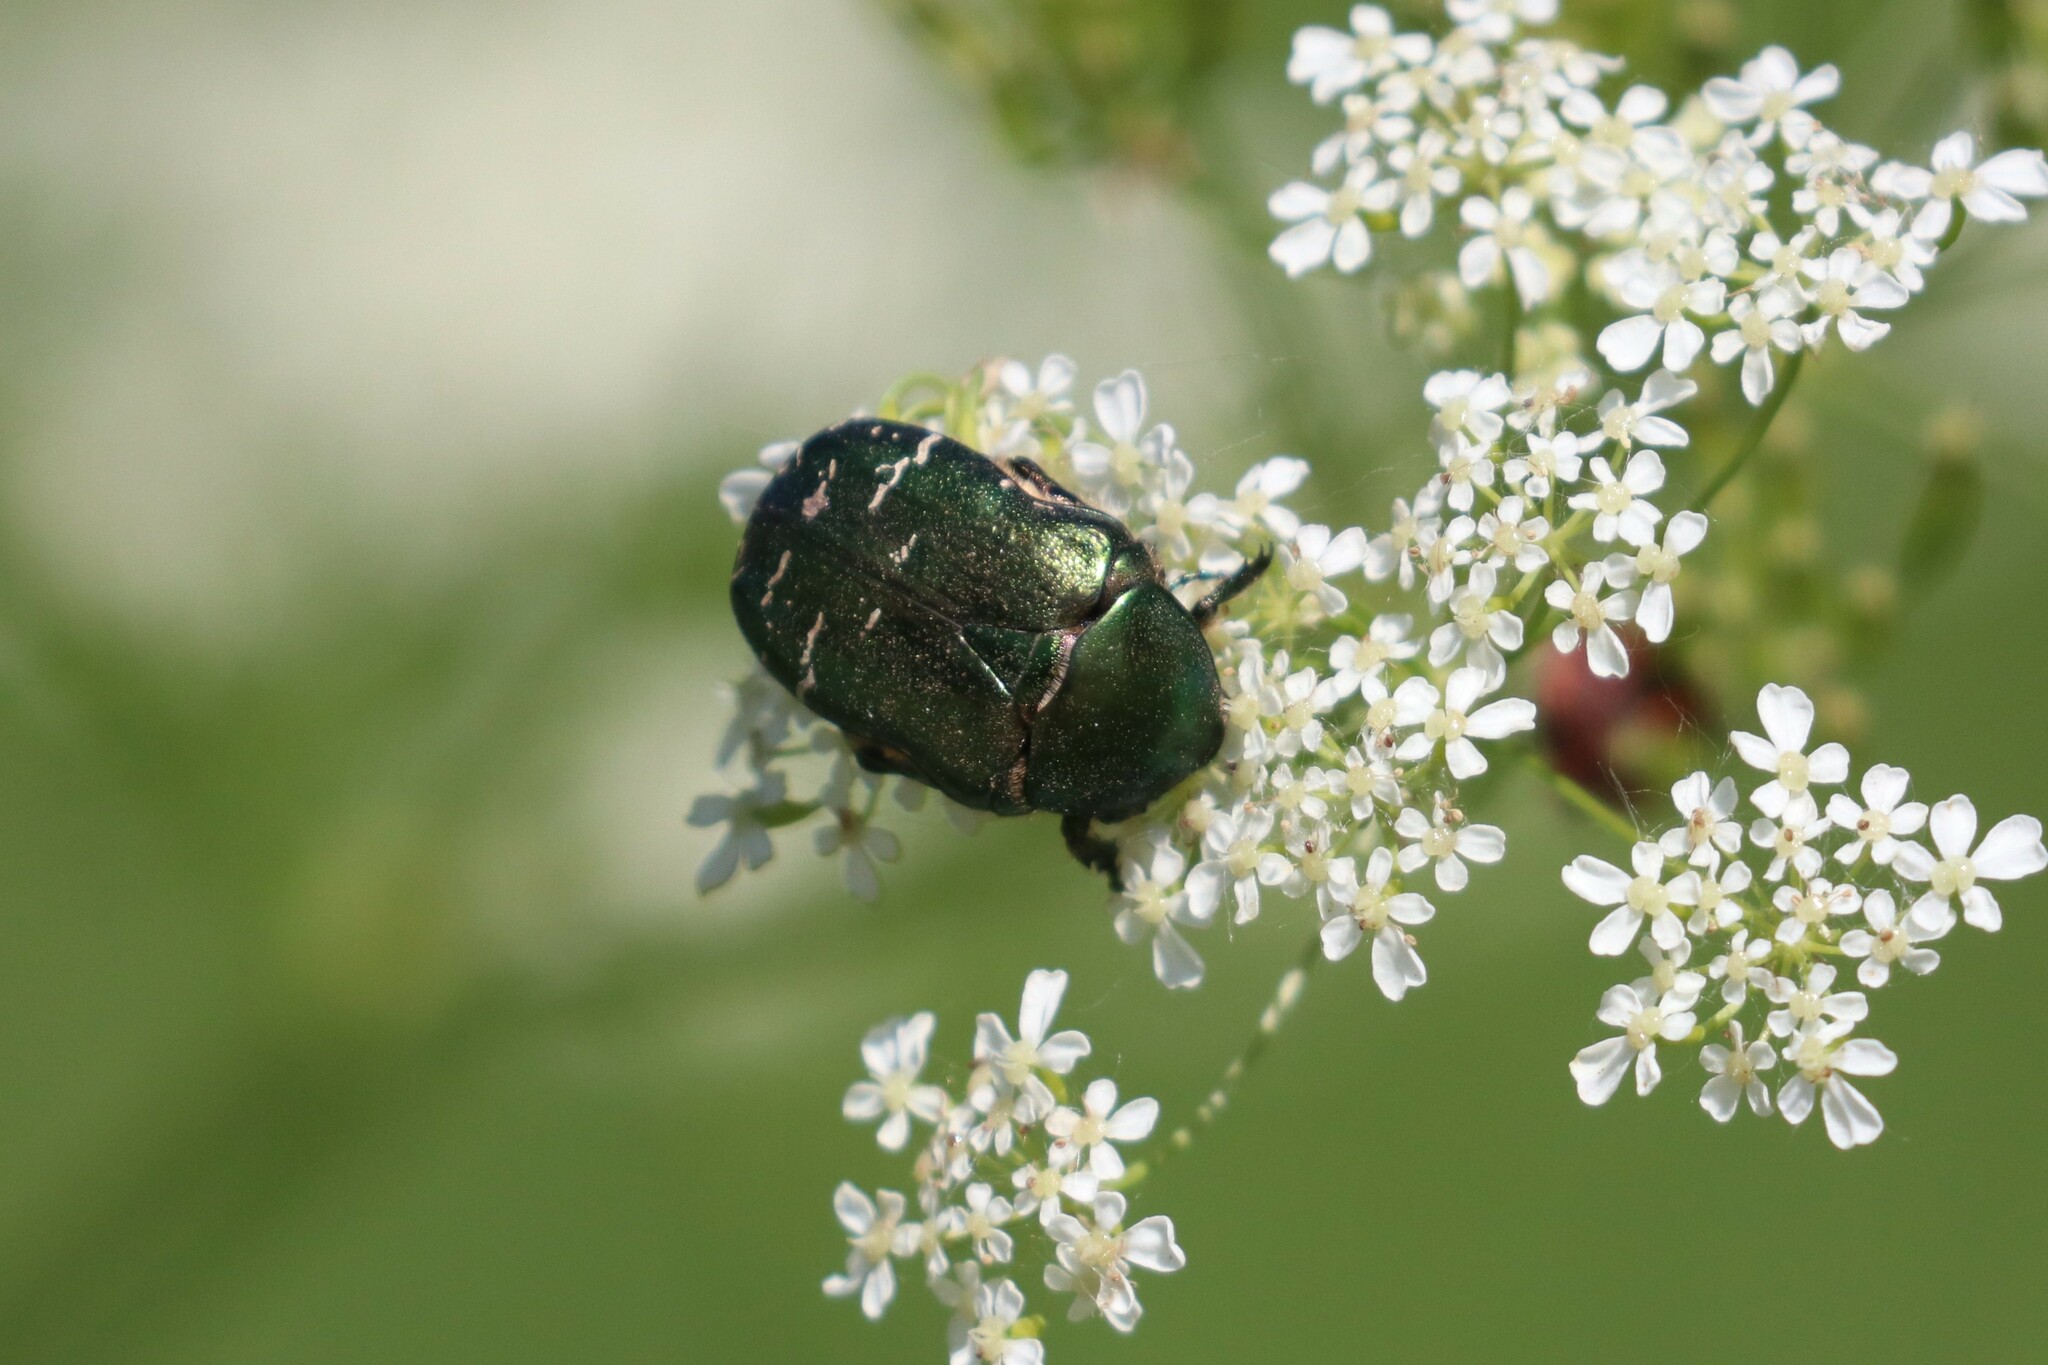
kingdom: Animalia
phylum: Arthropoda
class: Insecta
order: Coleoptera
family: Scarabaeidae
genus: Cetonia
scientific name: Cetonia aurata
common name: Rose chafer
